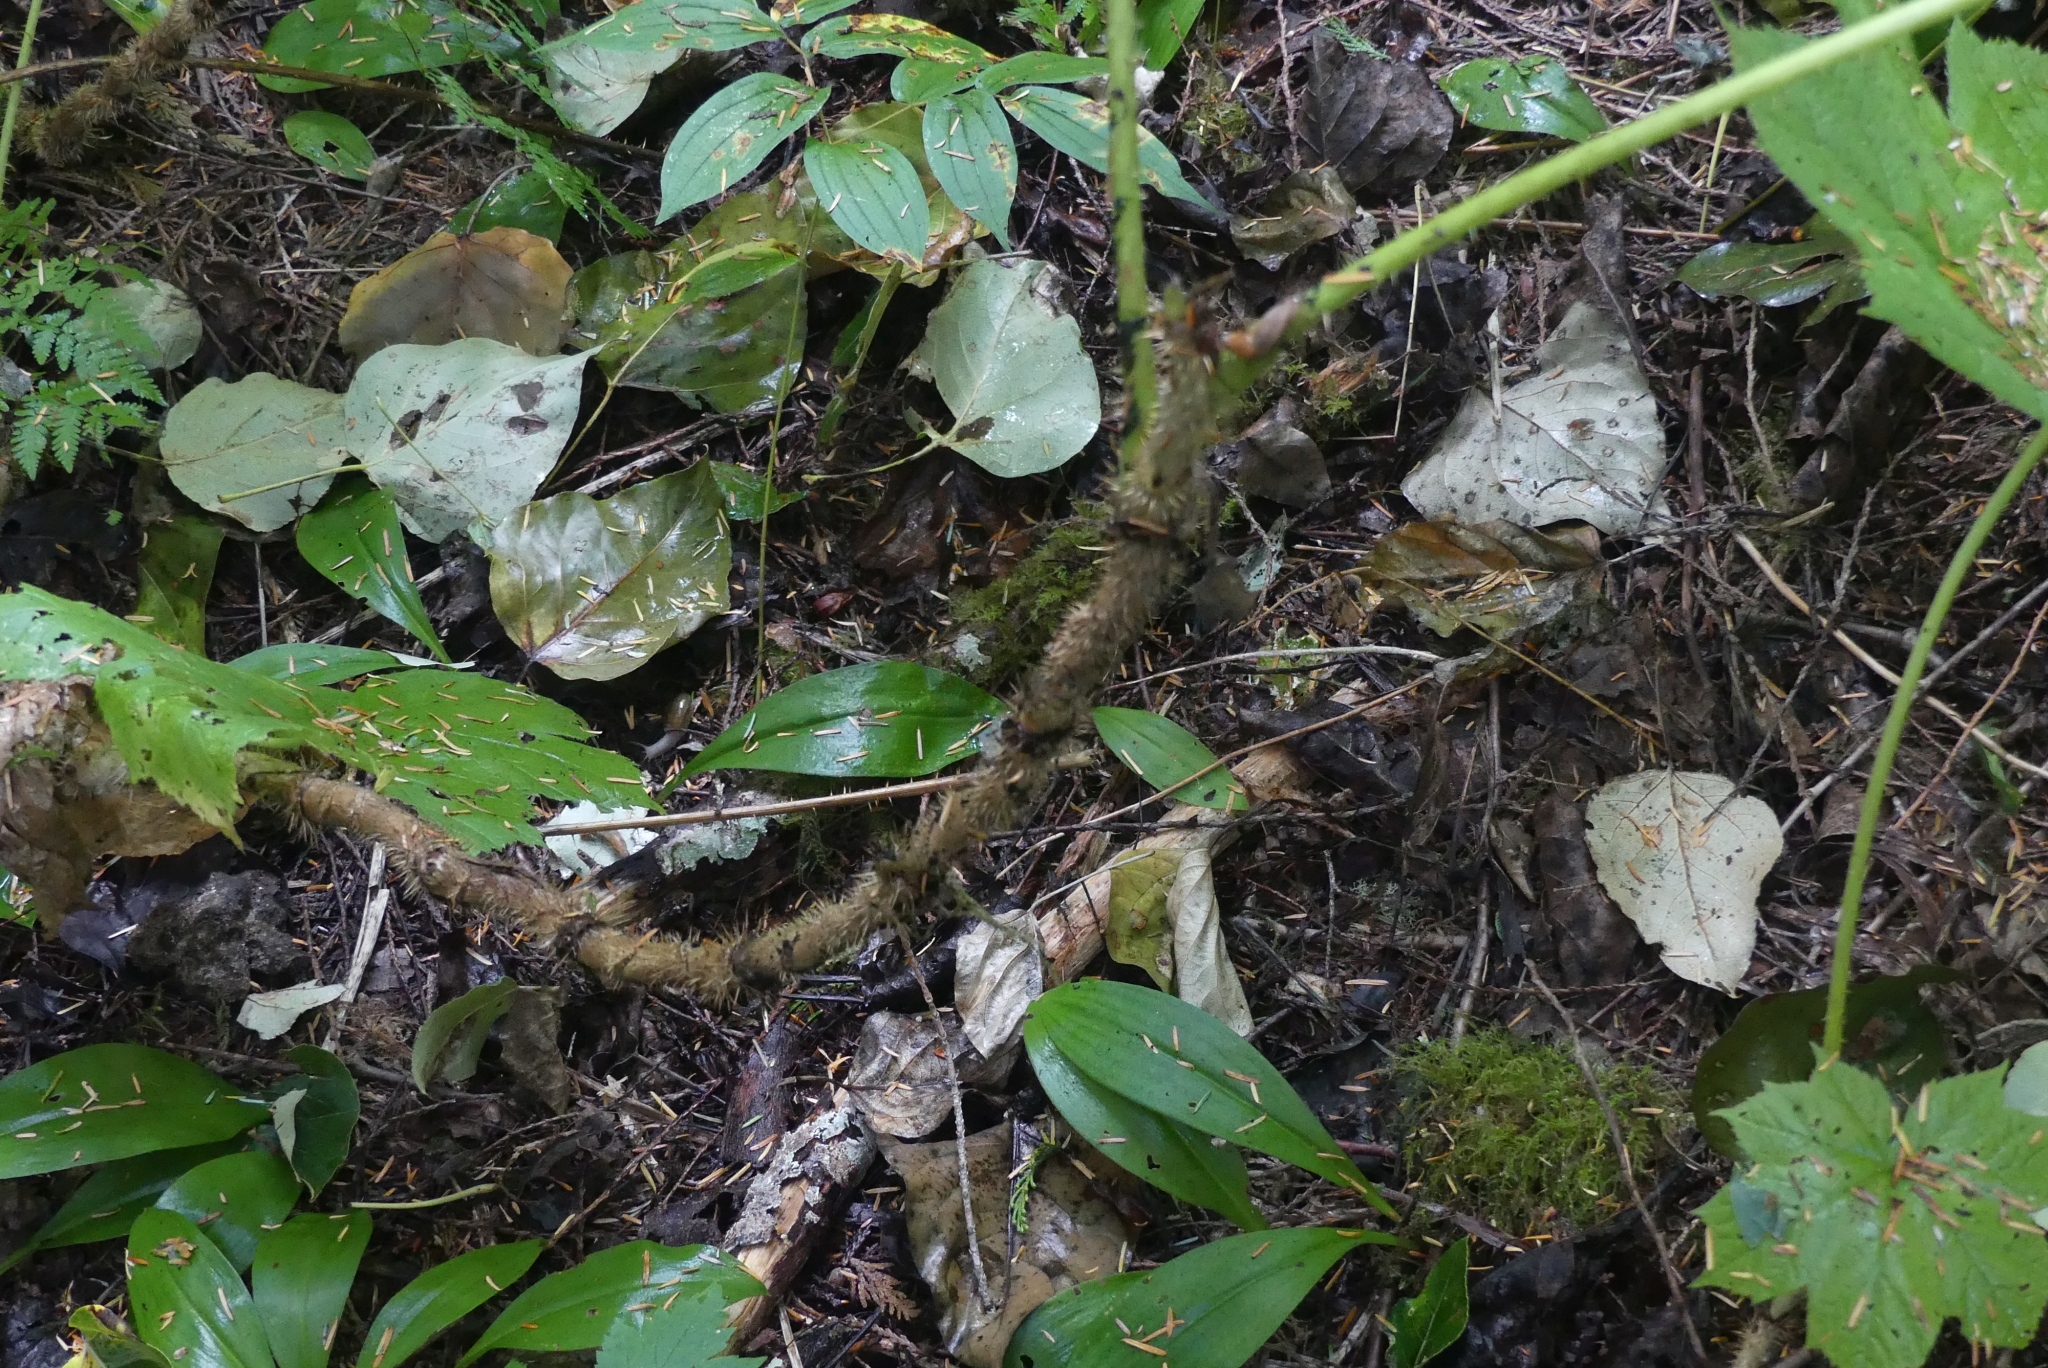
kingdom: Plantae
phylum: Tracheophyta
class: Magnoliopsida
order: Apiales
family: Araliaceae
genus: Oplopanax
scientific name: Oplopanax horridus
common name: Devil's walking-stick
